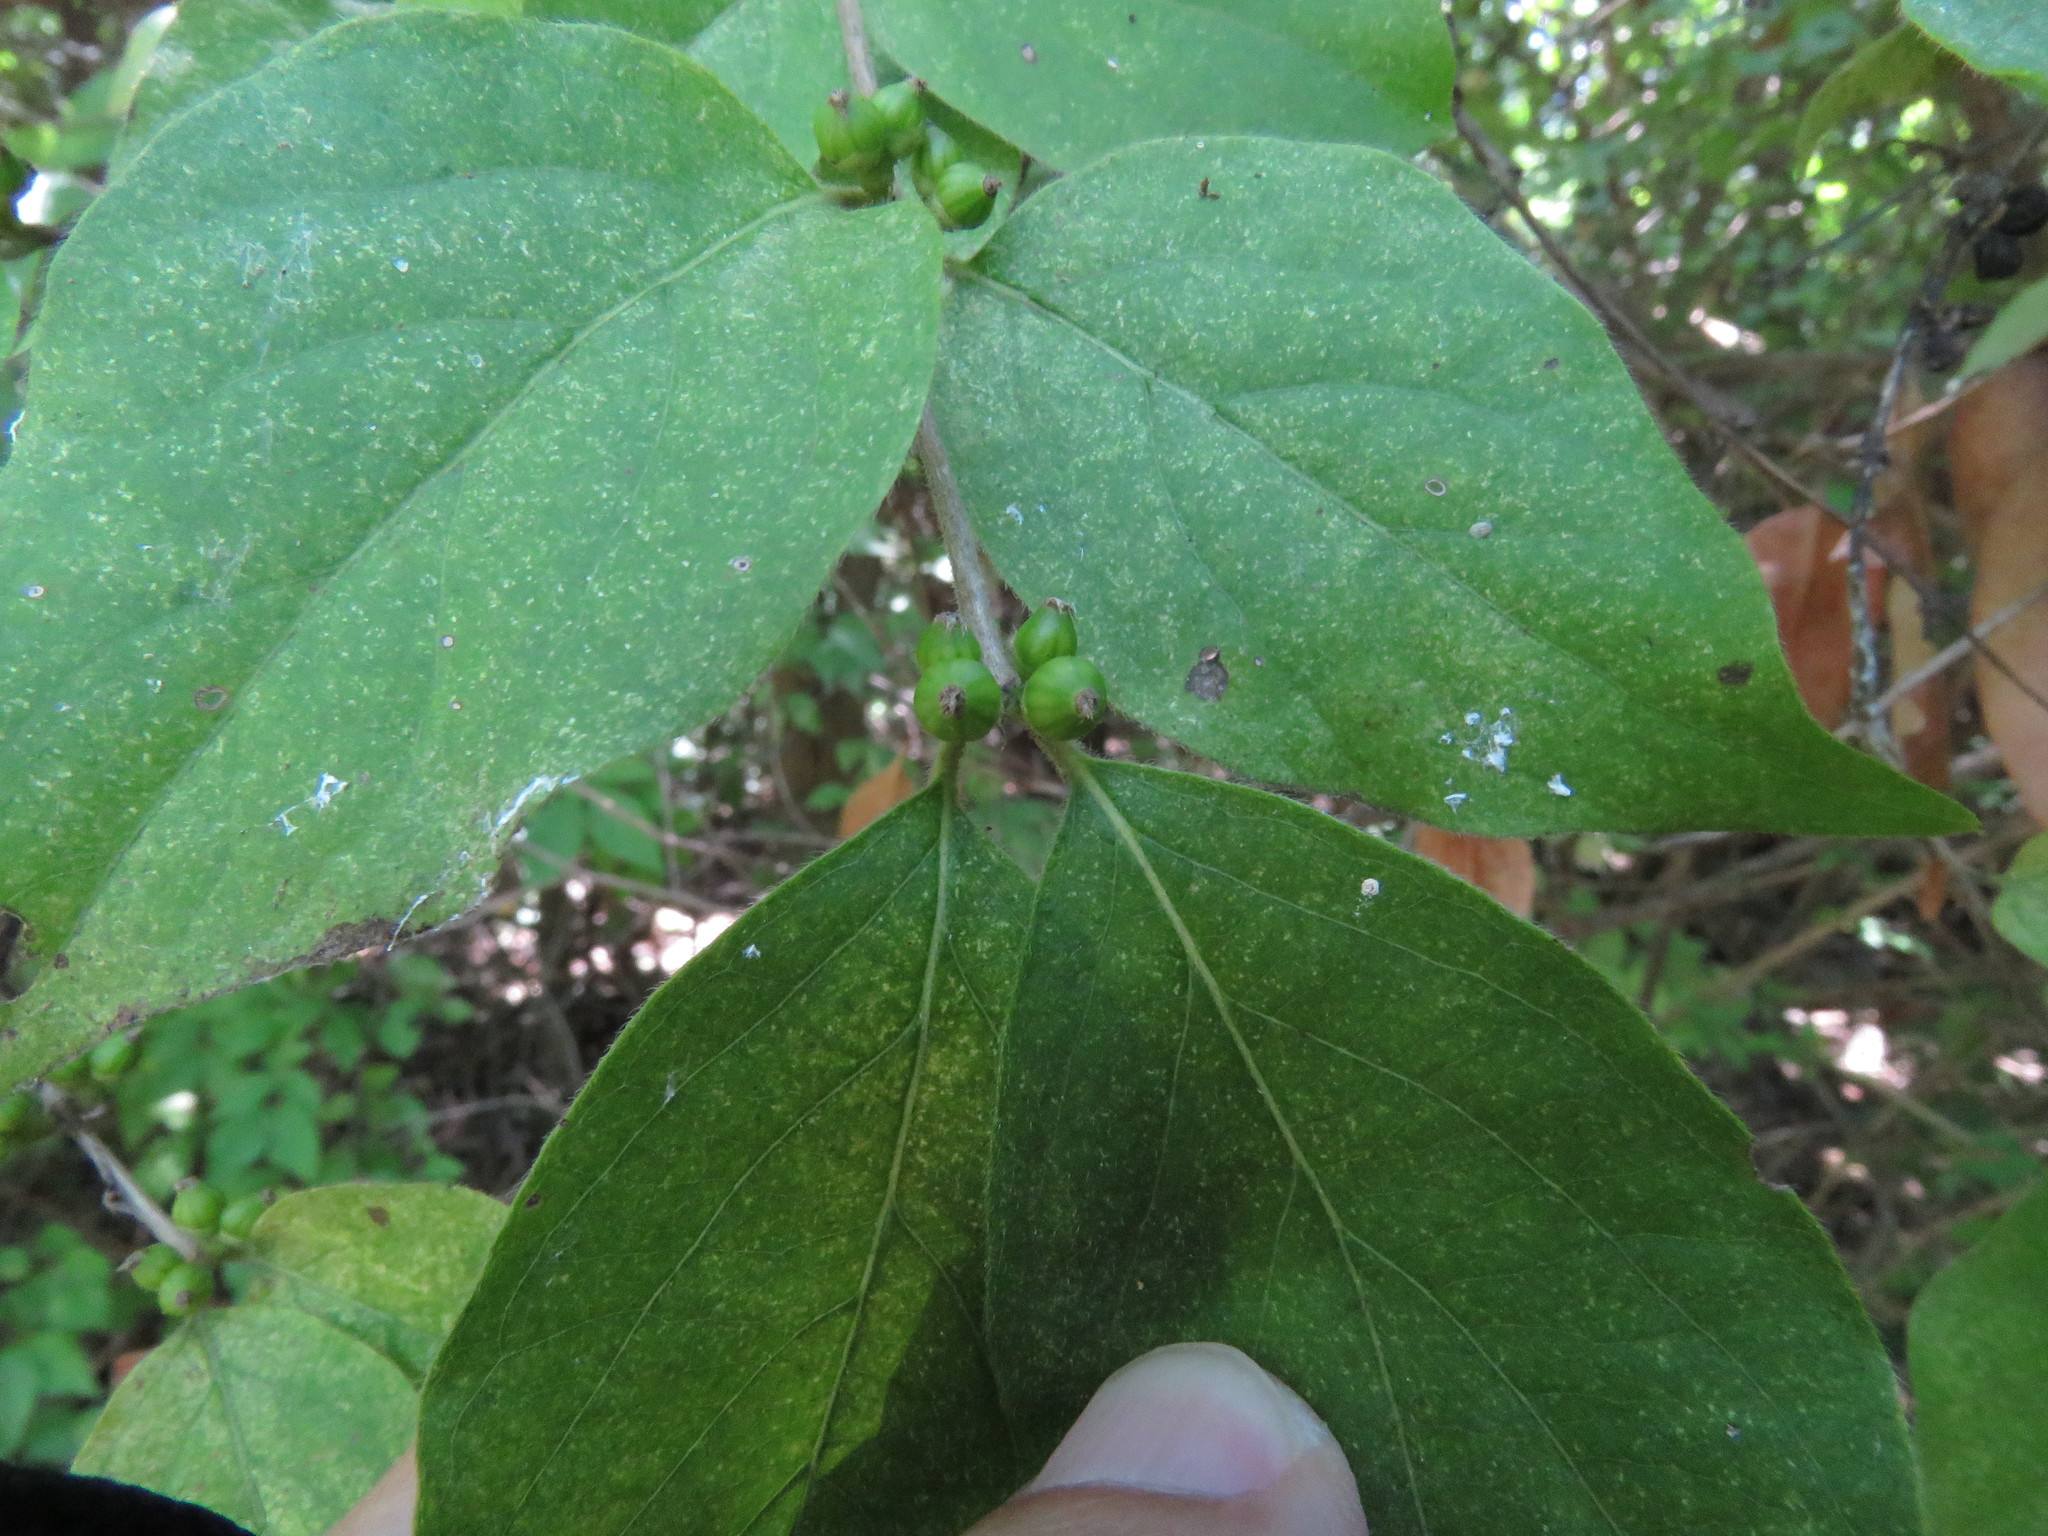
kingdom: Plantae
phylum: Tracheophyta
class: Magnoliopsida
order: Dipsacales
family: Caprifoliaceae
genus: Lonicera
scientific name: Lonicera maackii
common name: Amur honeysuckle
